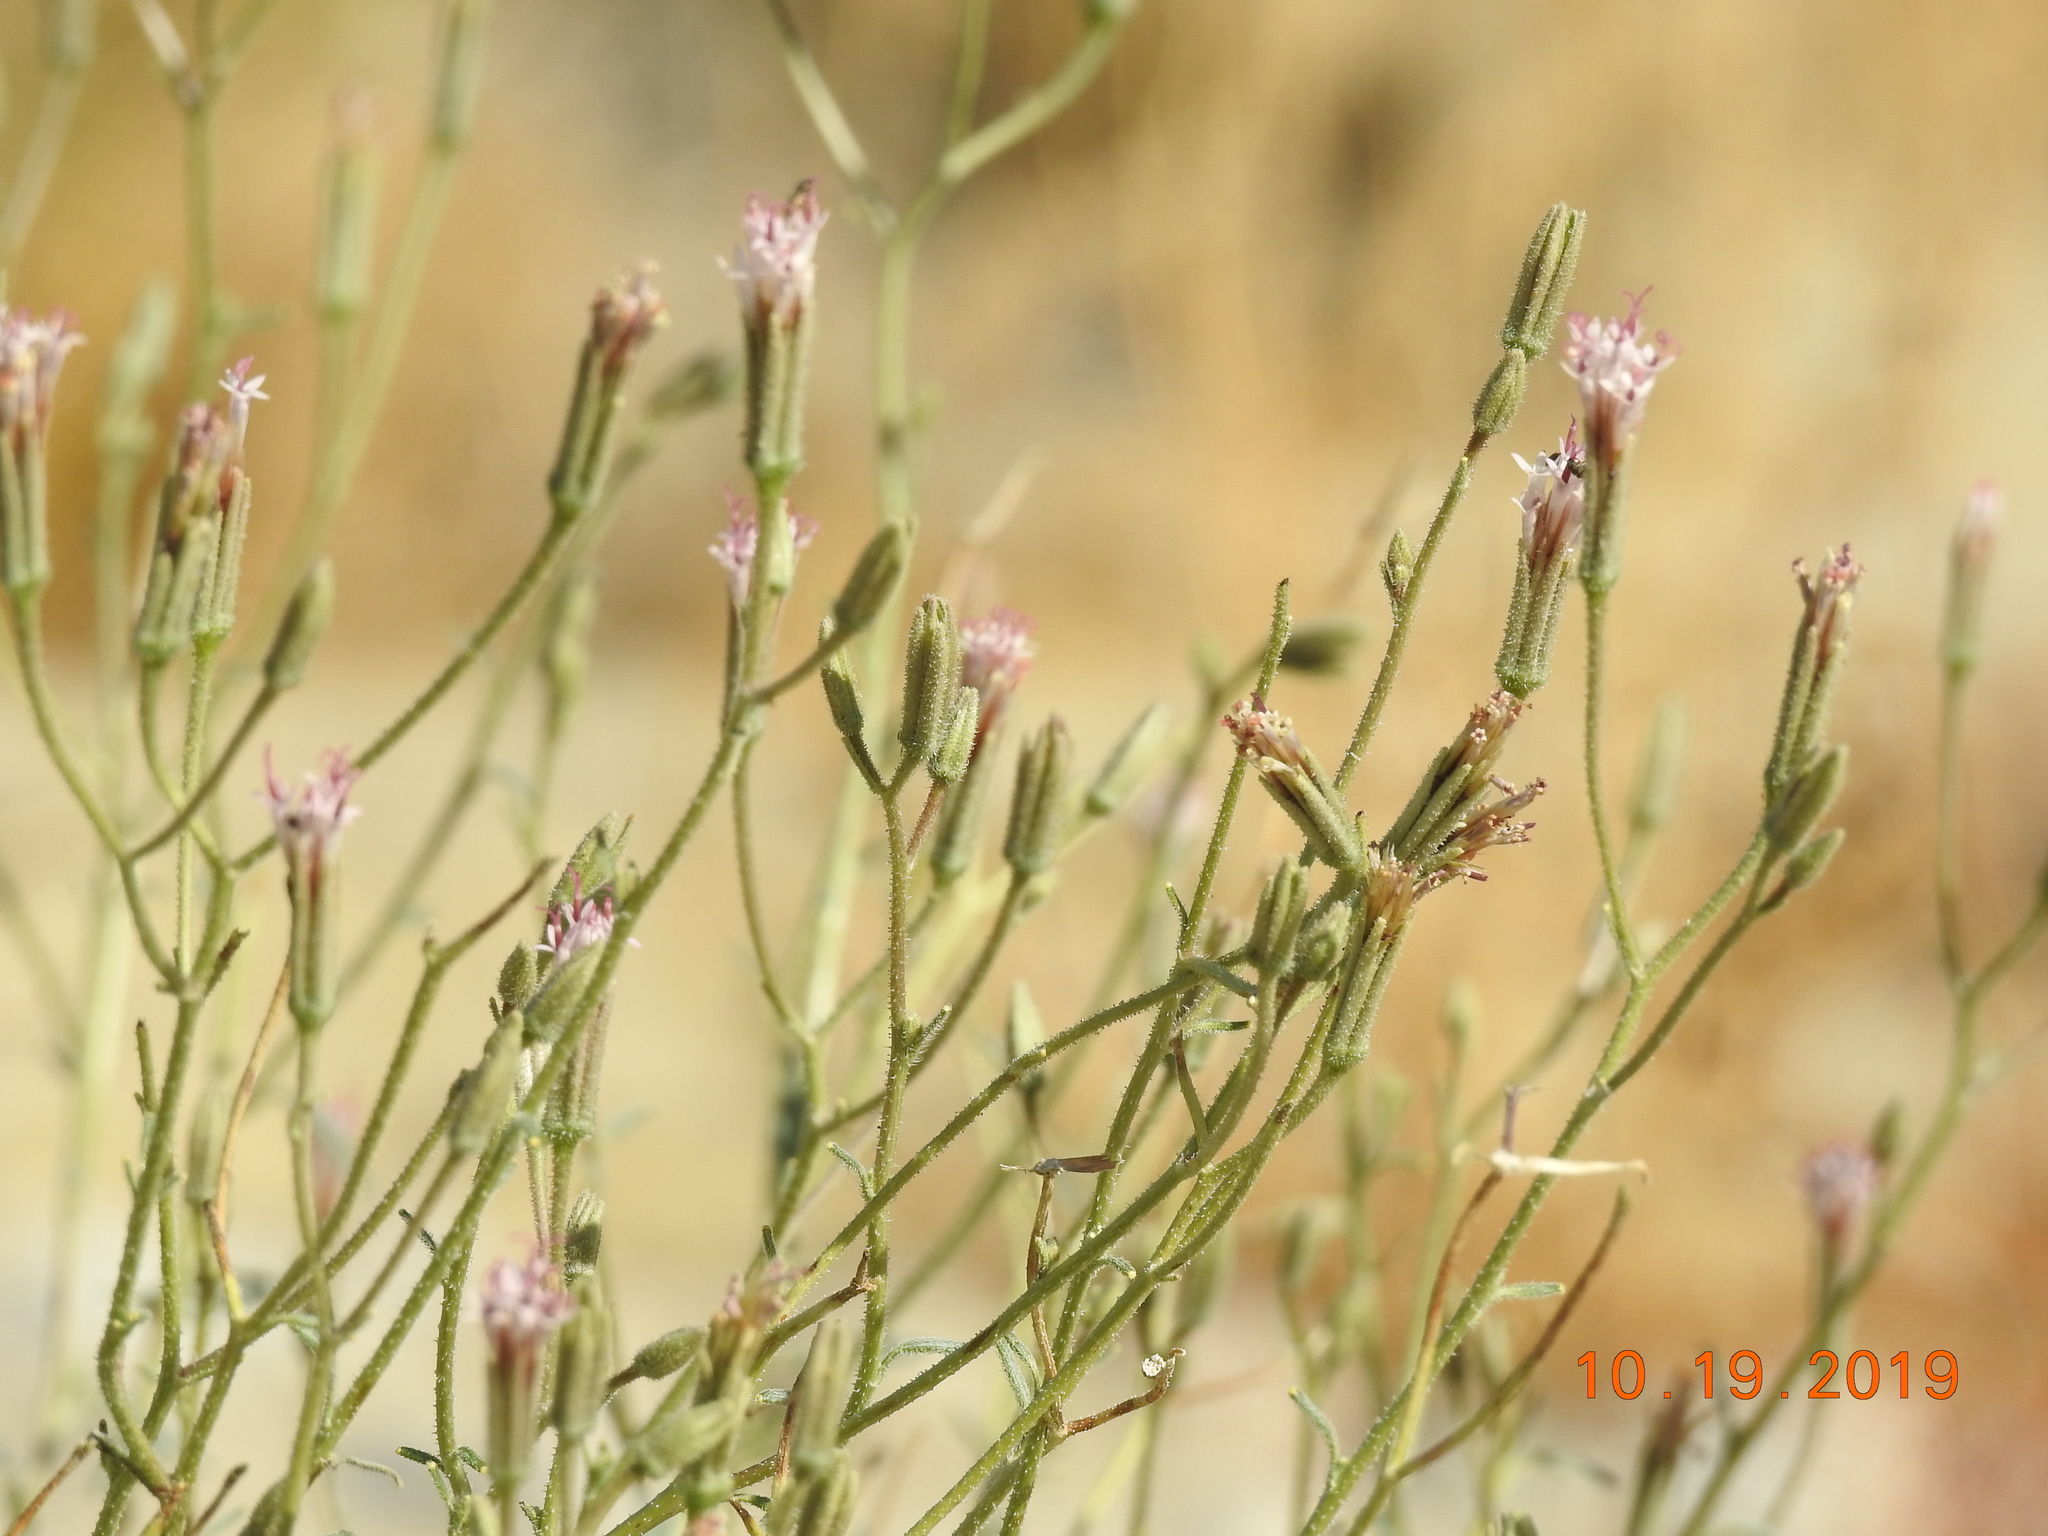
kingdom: Plantae
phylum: Tracheophyta
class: Magnoliopsida
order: Asterales
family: Asteraceae
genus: Palafoxia
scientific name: Palafoxia arida
